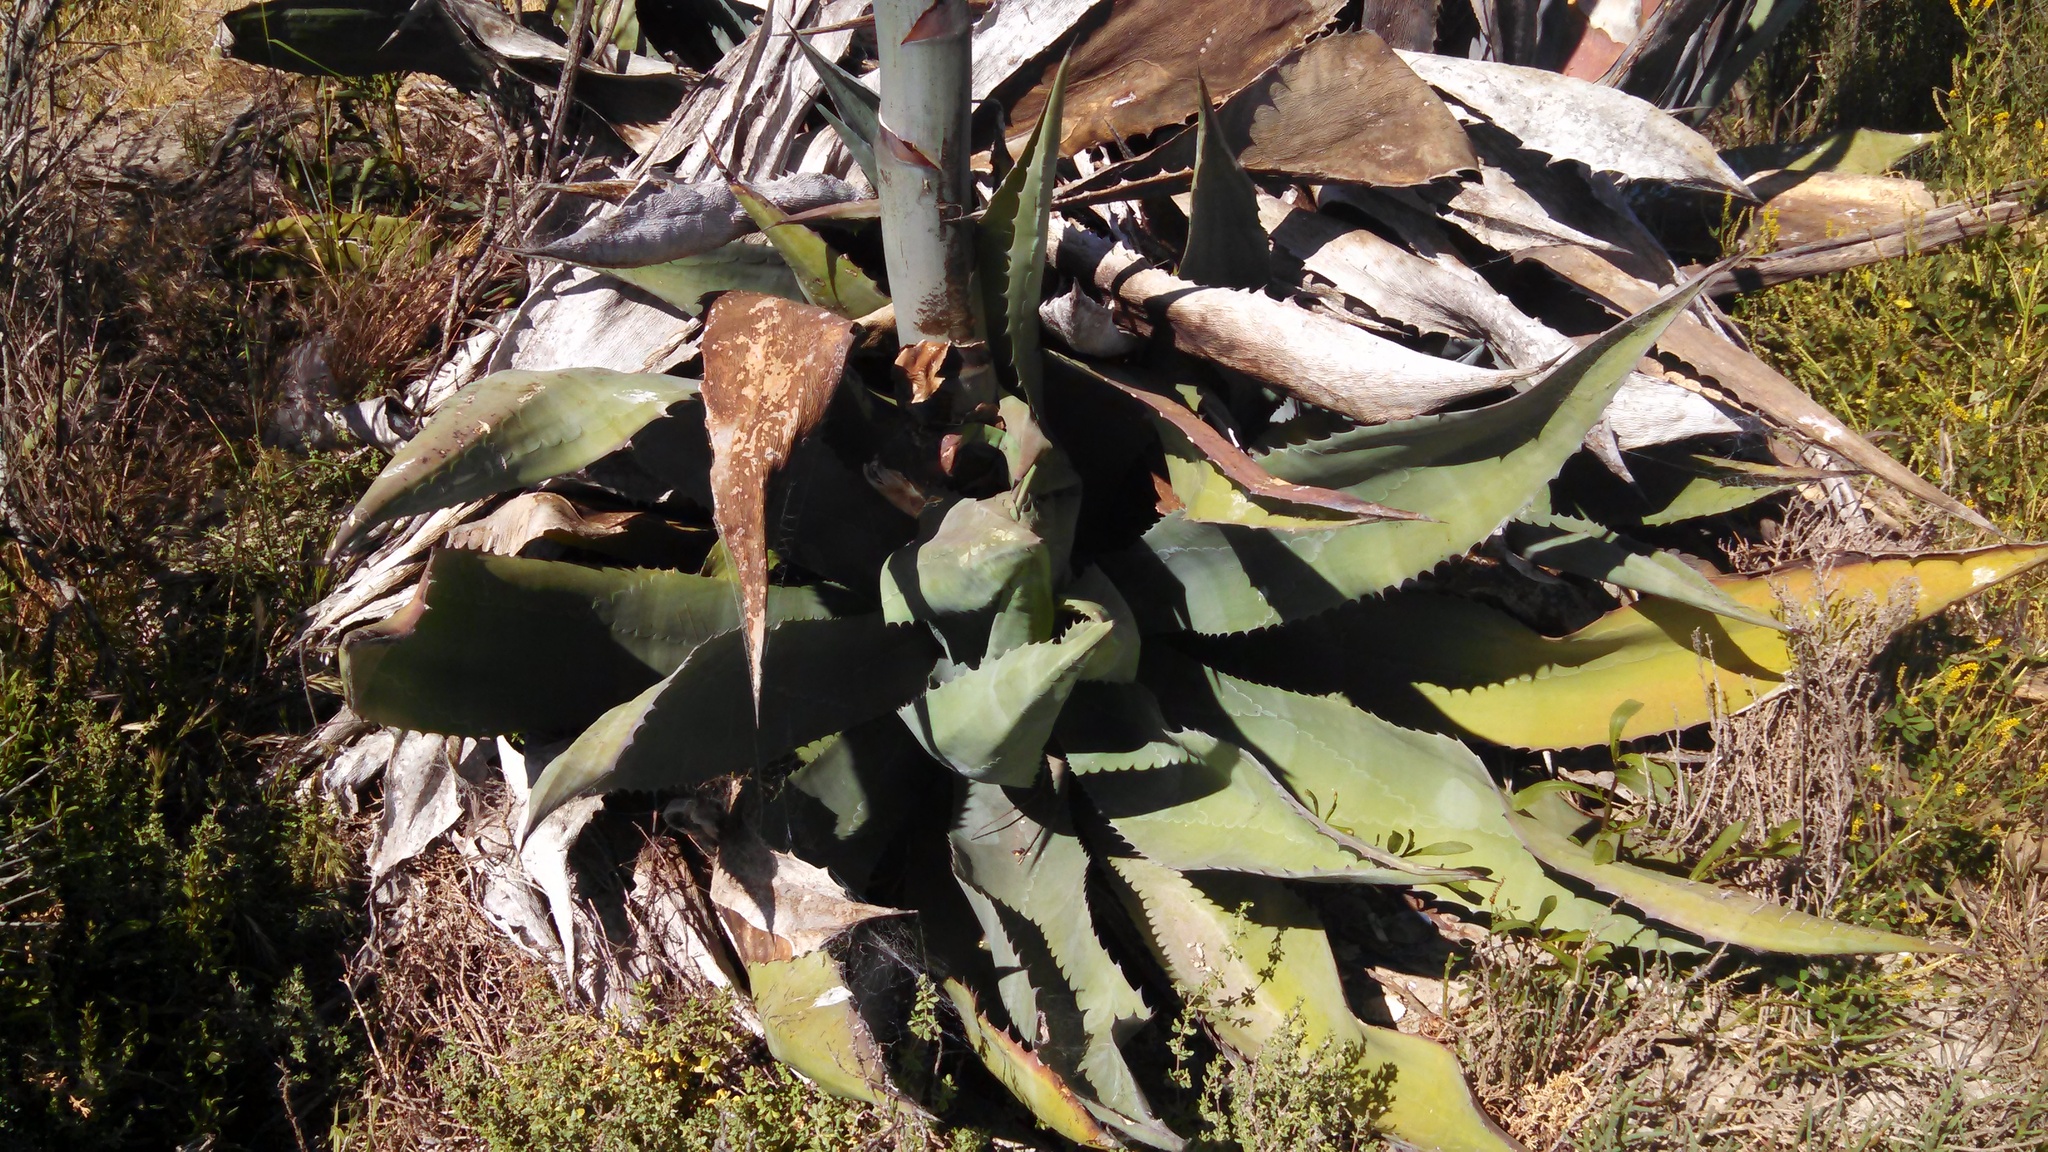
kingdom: Plantae
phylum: Tracheophyta
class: Liliopsida
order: Asparagales
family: Asparagaceae
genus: Agave
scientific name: Agave americana
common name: Centuryplant
